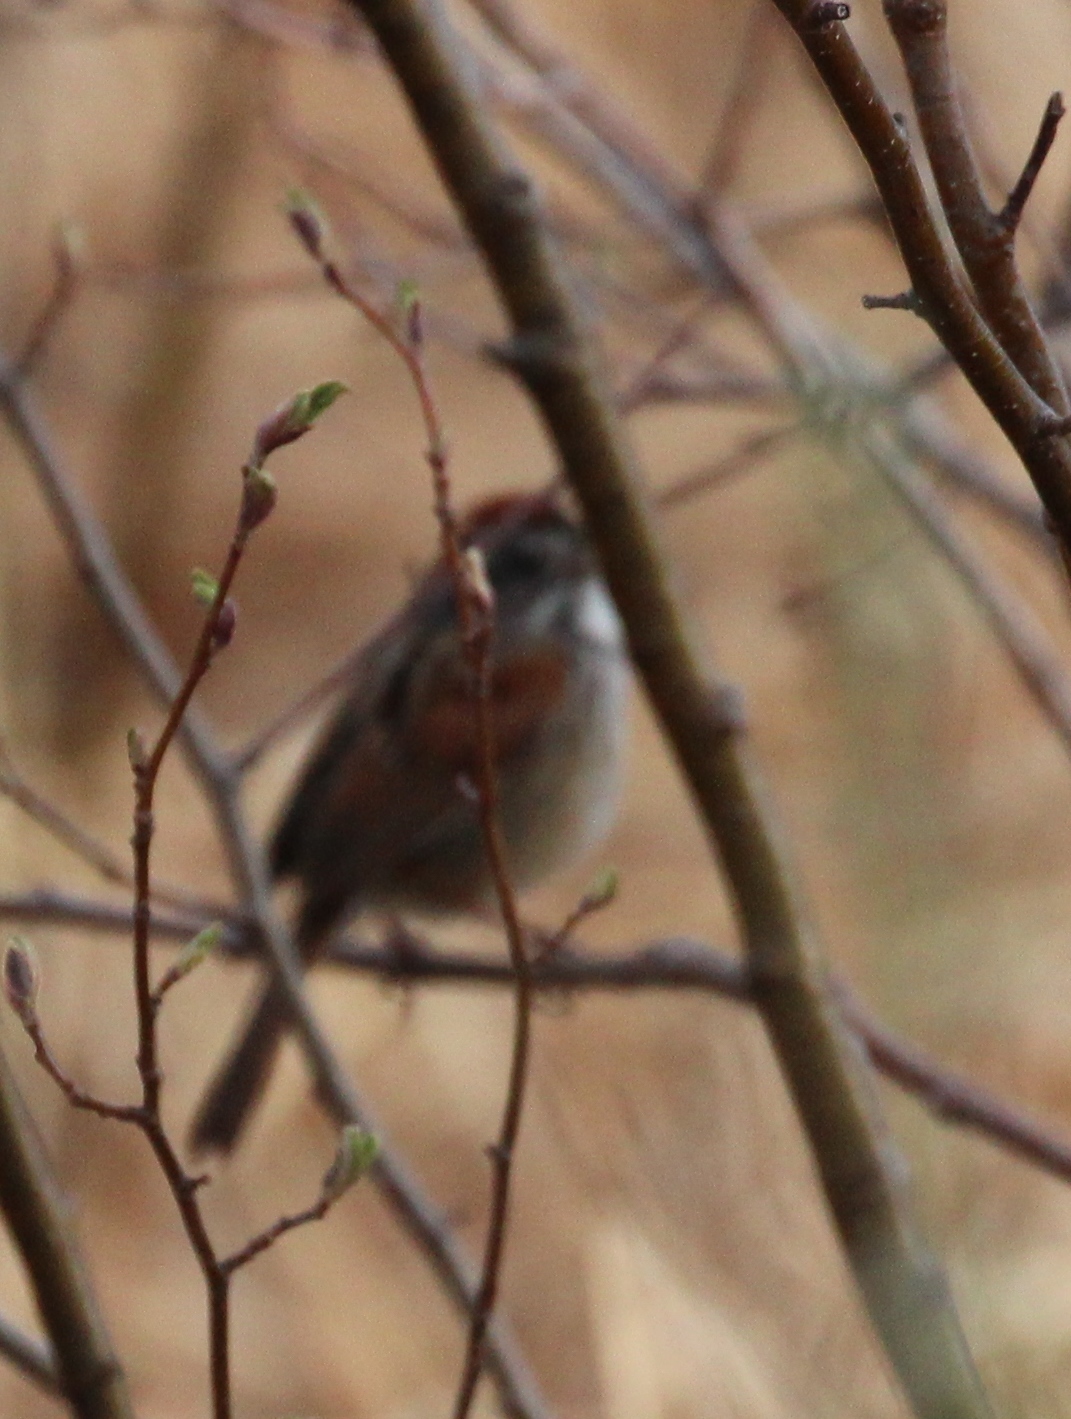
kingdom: Animalia
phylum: Chordata
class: Aves
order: Passeriformes
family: Passerellidae
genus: Melospiza
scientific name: Melospiza georgiana
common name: Swamp sparrow
